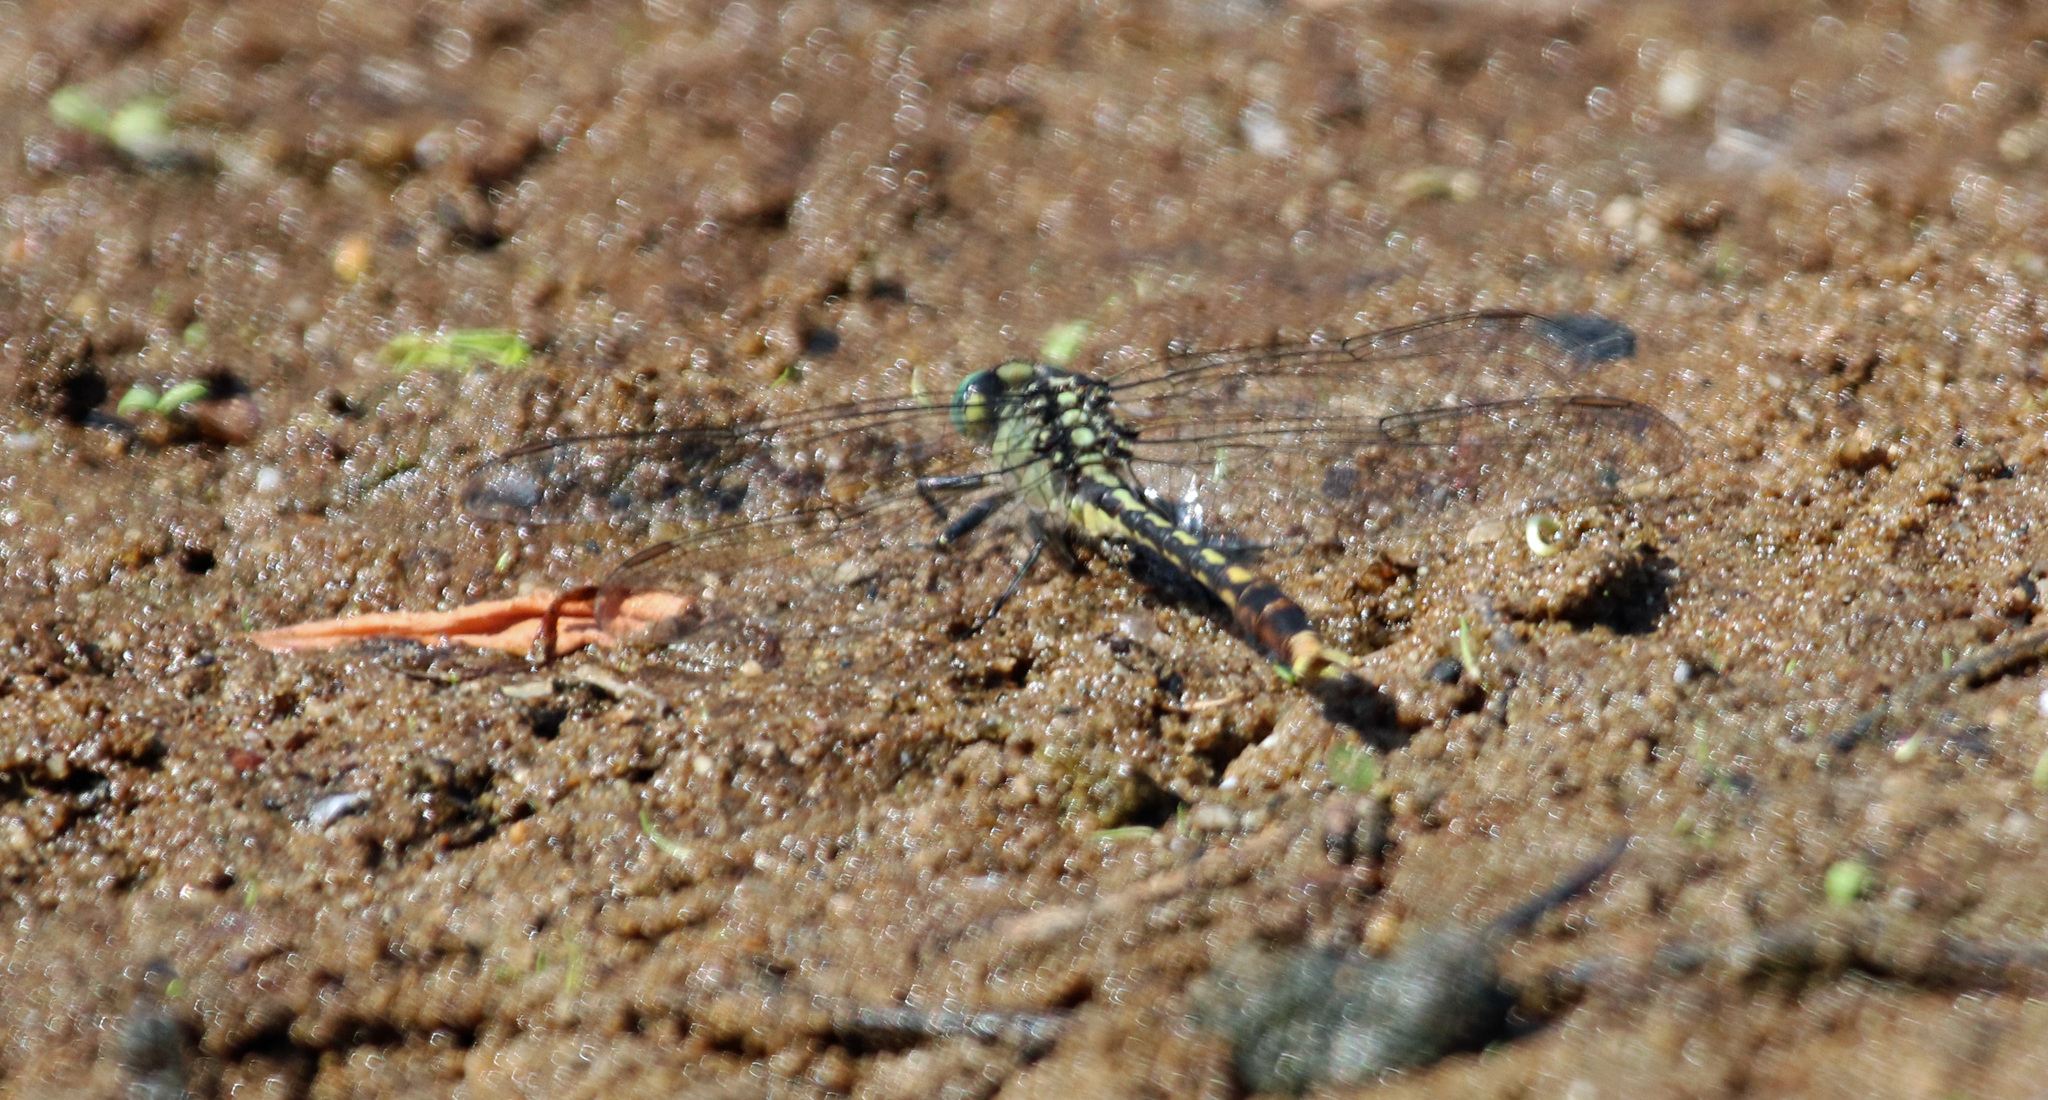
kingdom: Animalia
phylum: Arthropoda
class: Insecta
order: Odonata
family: Gomphidae
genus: Arigomphus
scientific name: Arigomphus villosipes
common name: Unicorn clubtail
